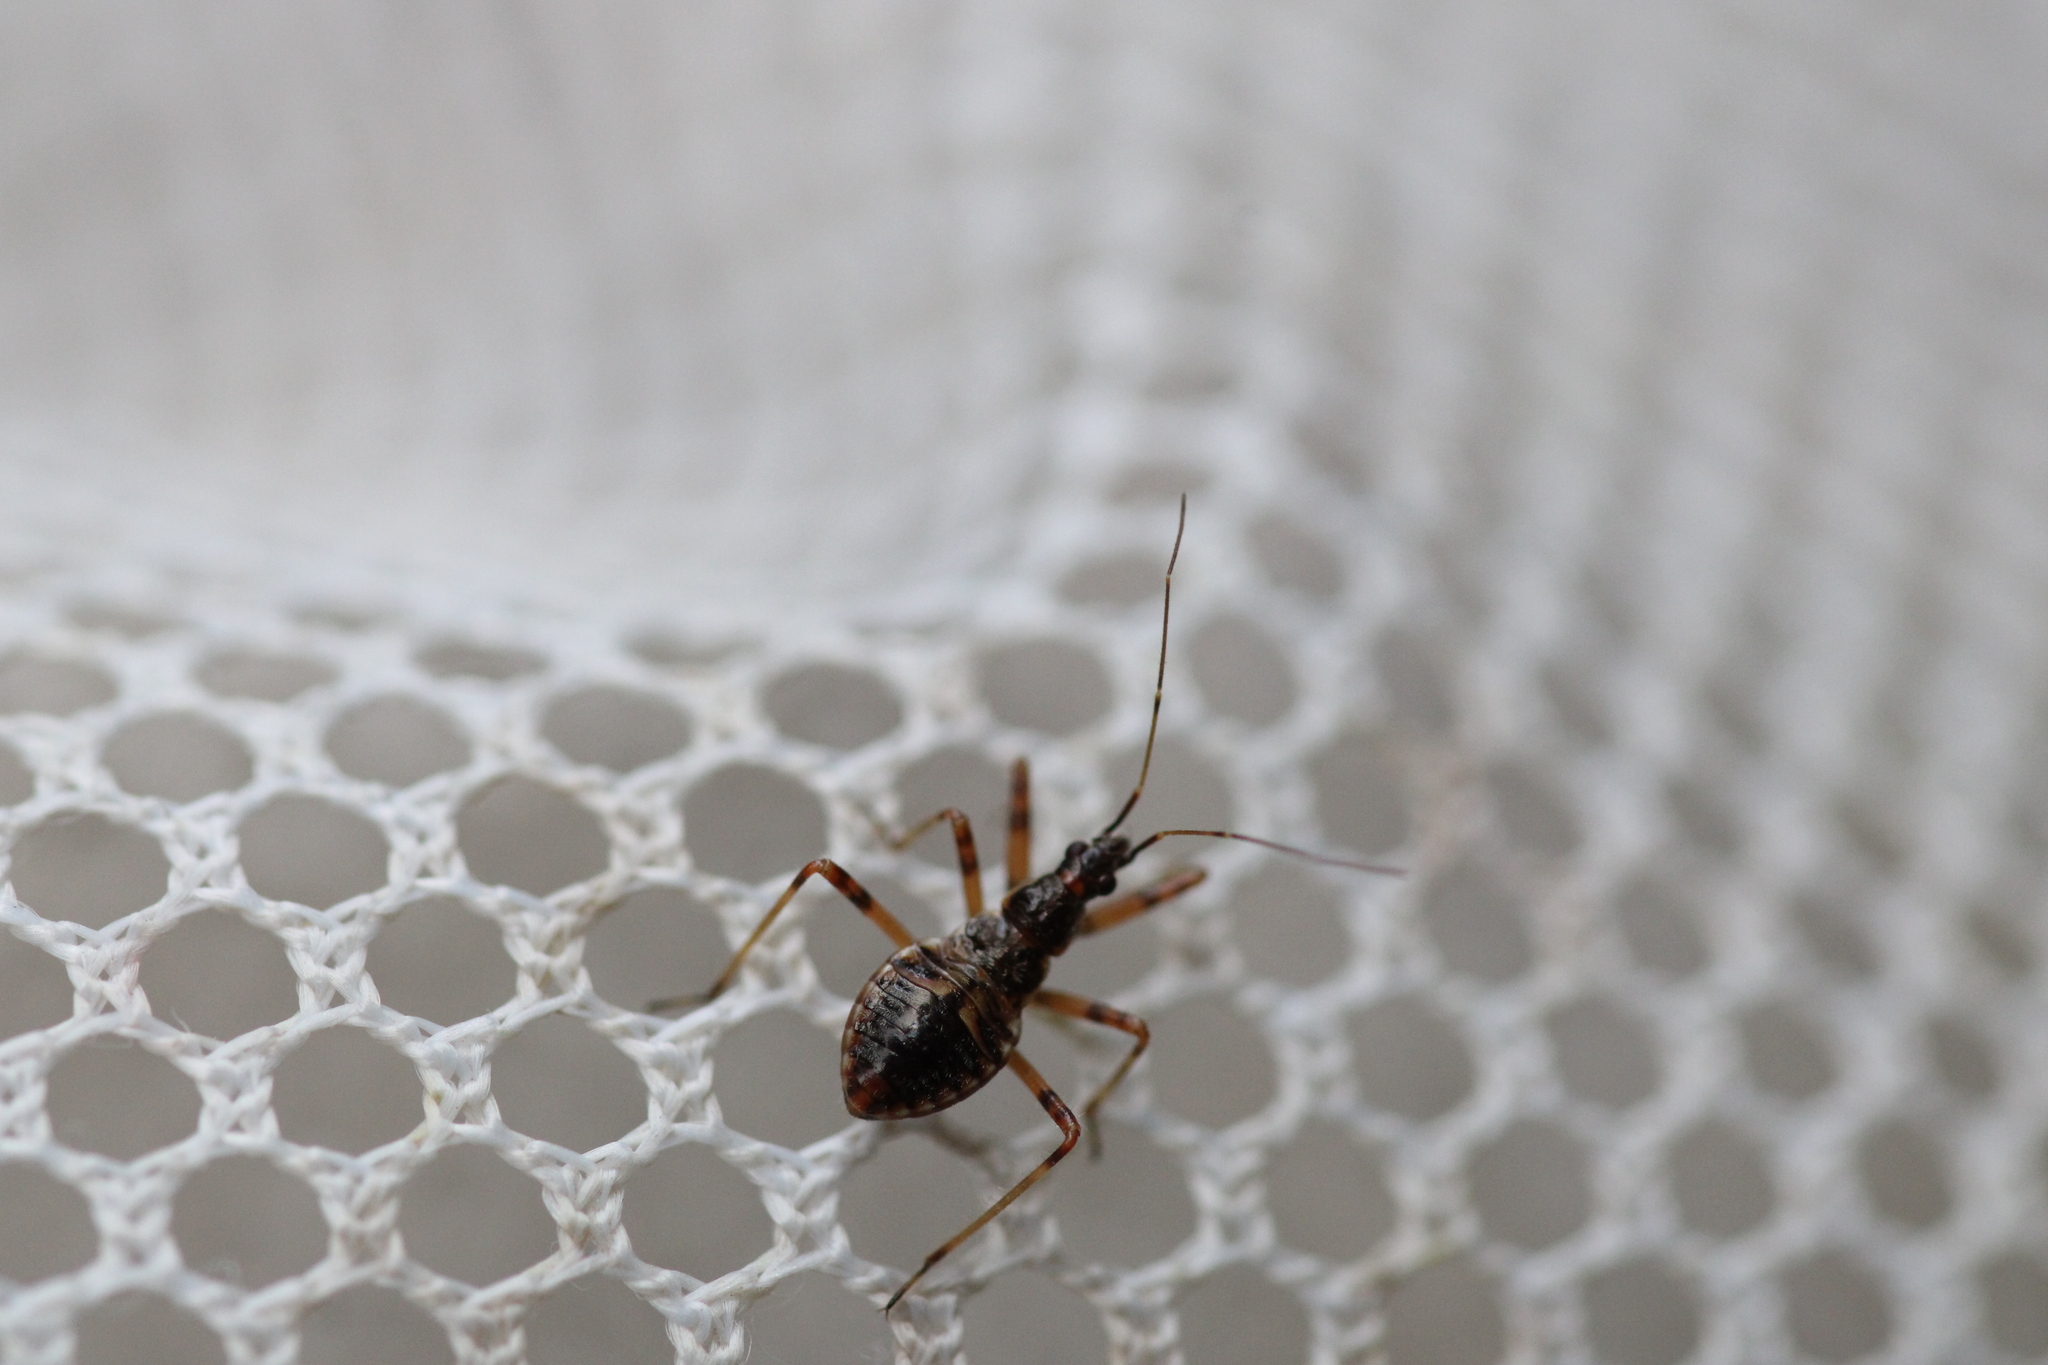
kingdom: Animalia
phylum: Arthropoda
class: Insecta
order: Hemiptera
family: Nabidae
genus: Himacerus
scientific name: Himacerus apterus
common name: Tree damsel bug
